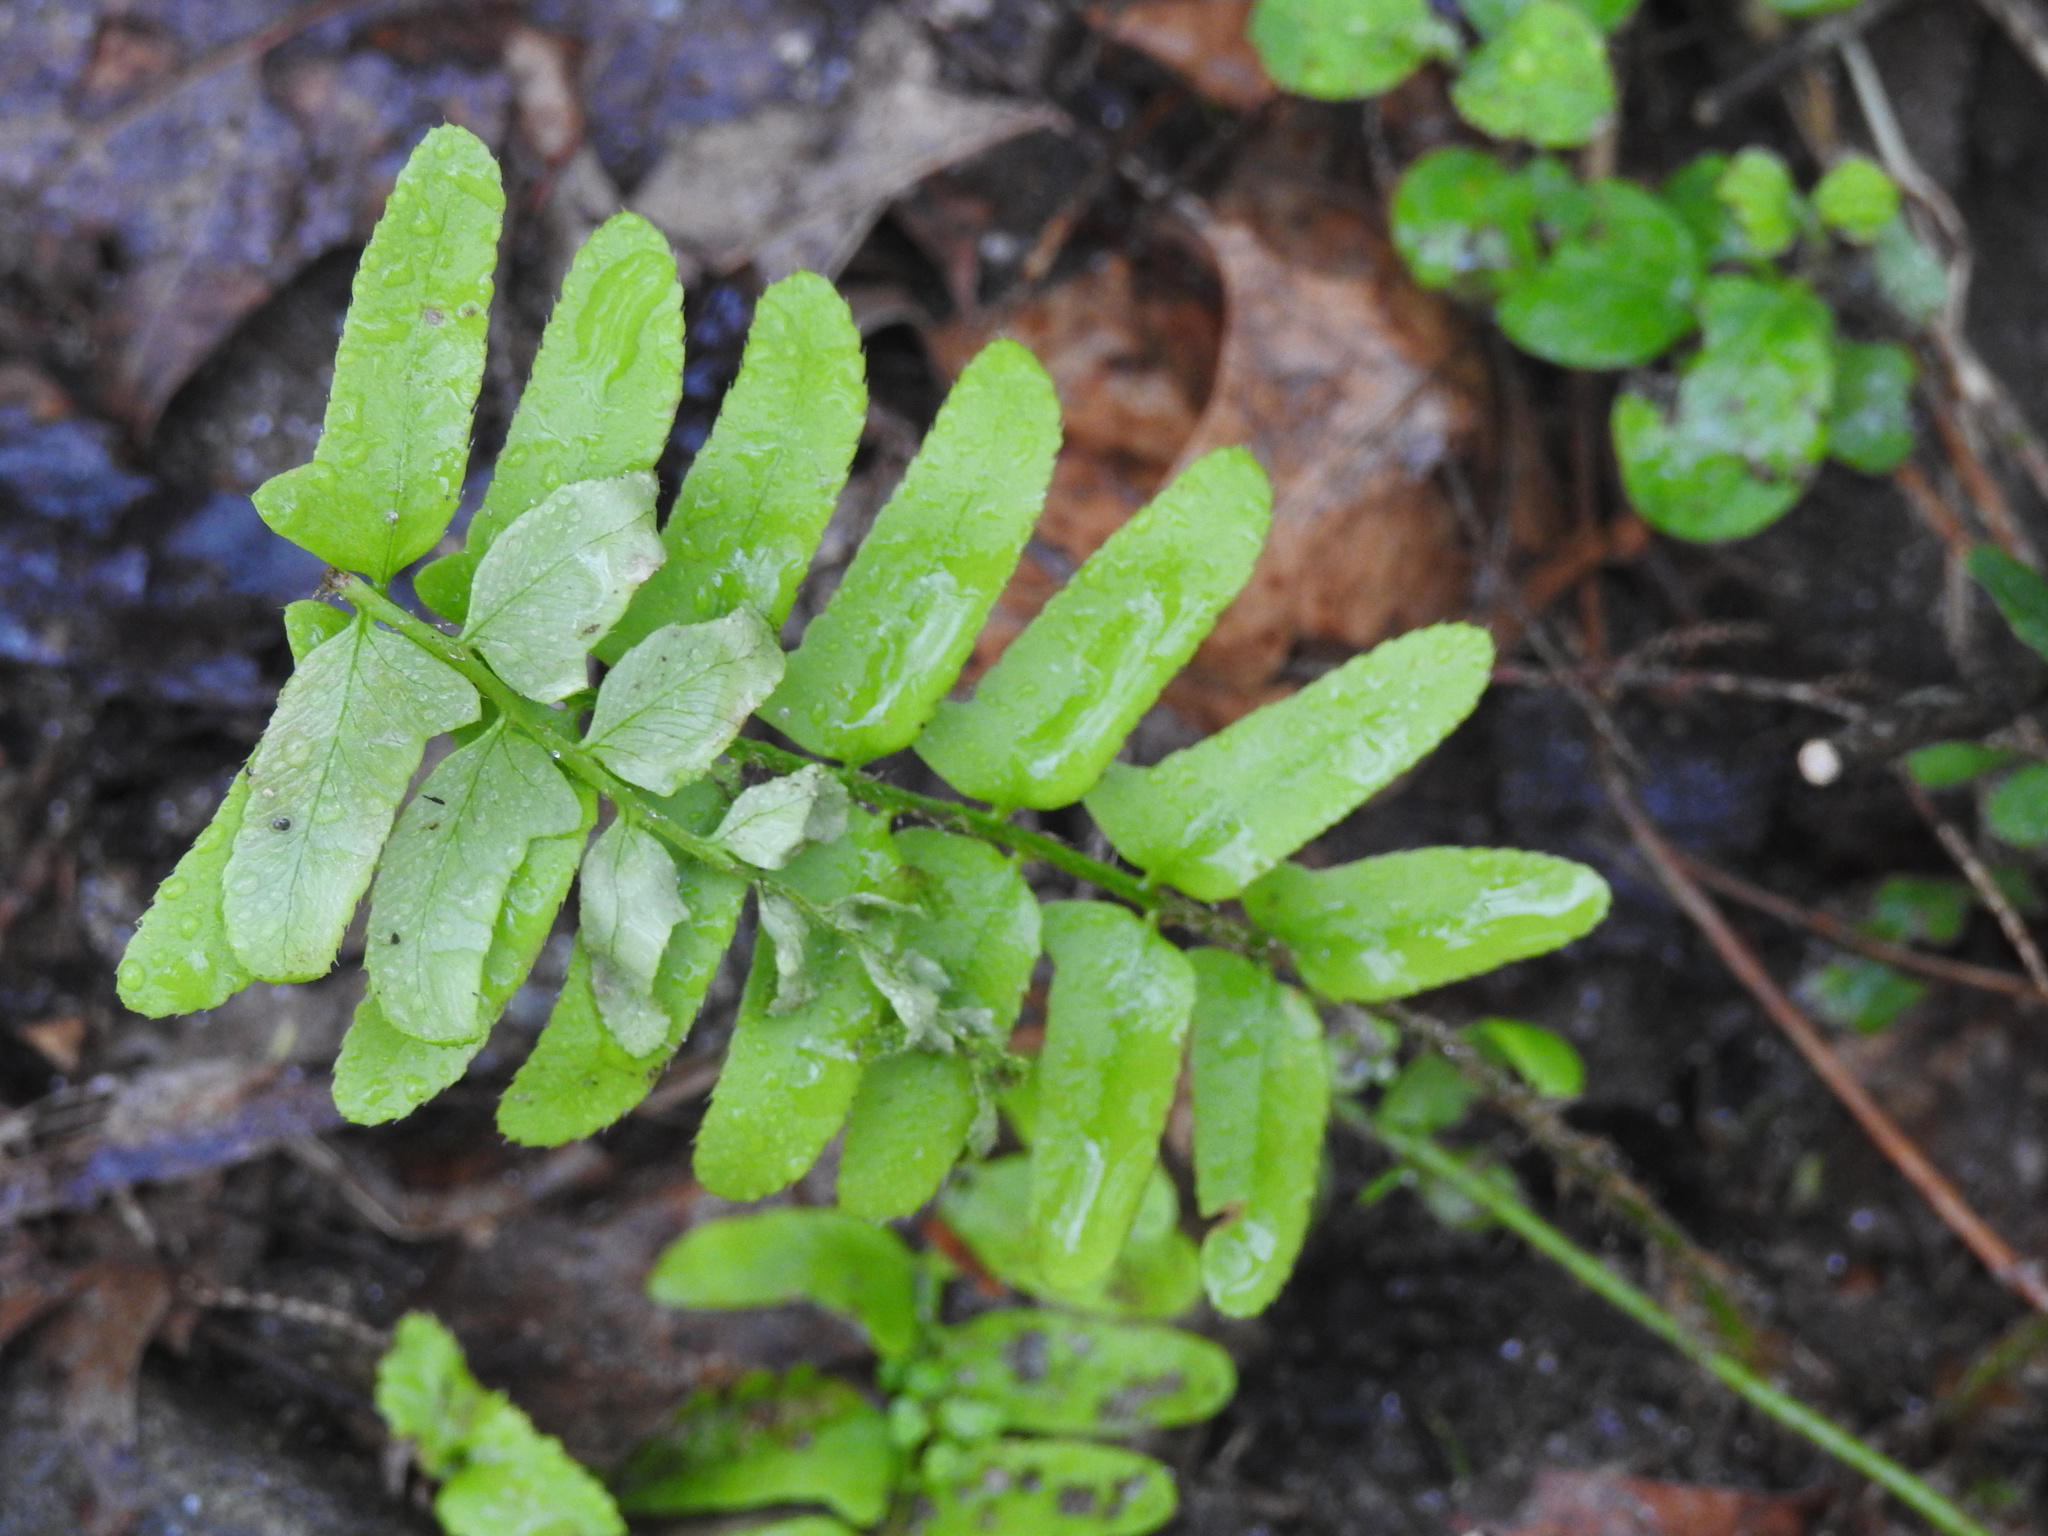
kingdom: Plantae
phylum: Tracheophyta
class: Polypodiopsida
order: Polypodiales
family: Dryopteridaceae
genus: Polystichum
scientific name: Polystichum acrostichoides
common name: Christmas fern
